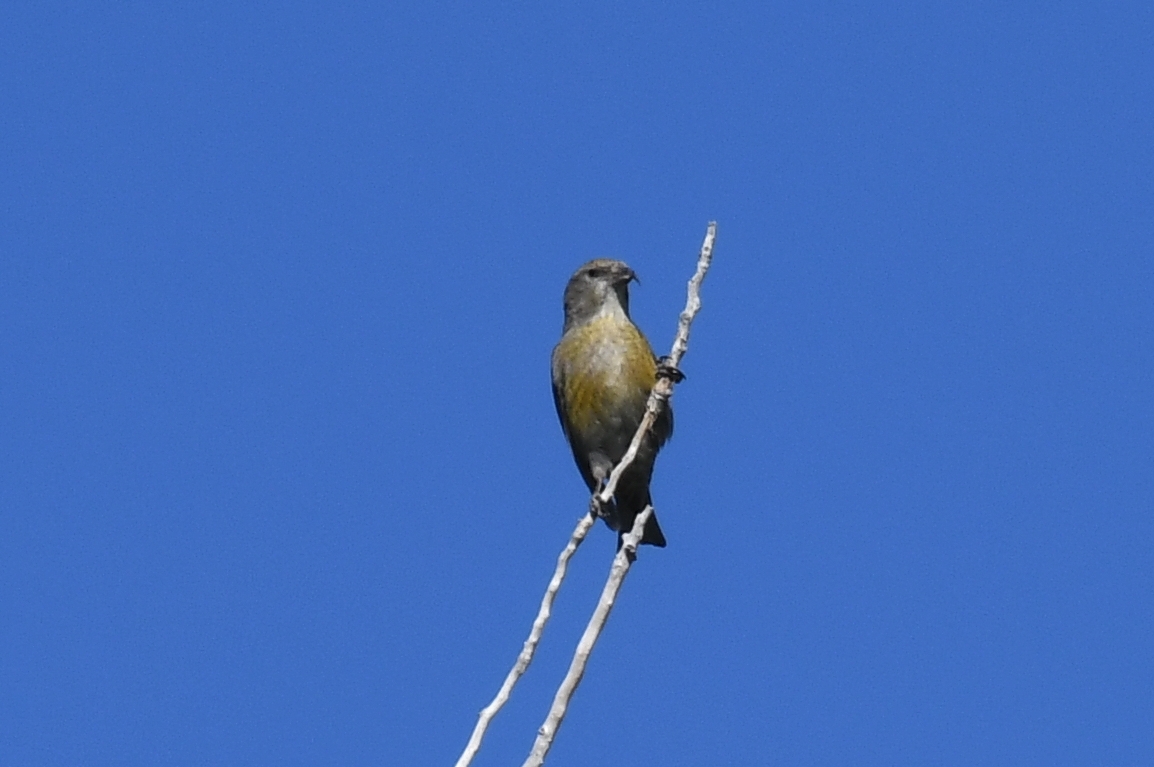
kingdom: Animalia
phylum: Chordata
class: Aves
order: Passeriformes
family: Fringillidae
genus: Loxia
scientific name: Loxia curvirostra
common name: Red crossbill
